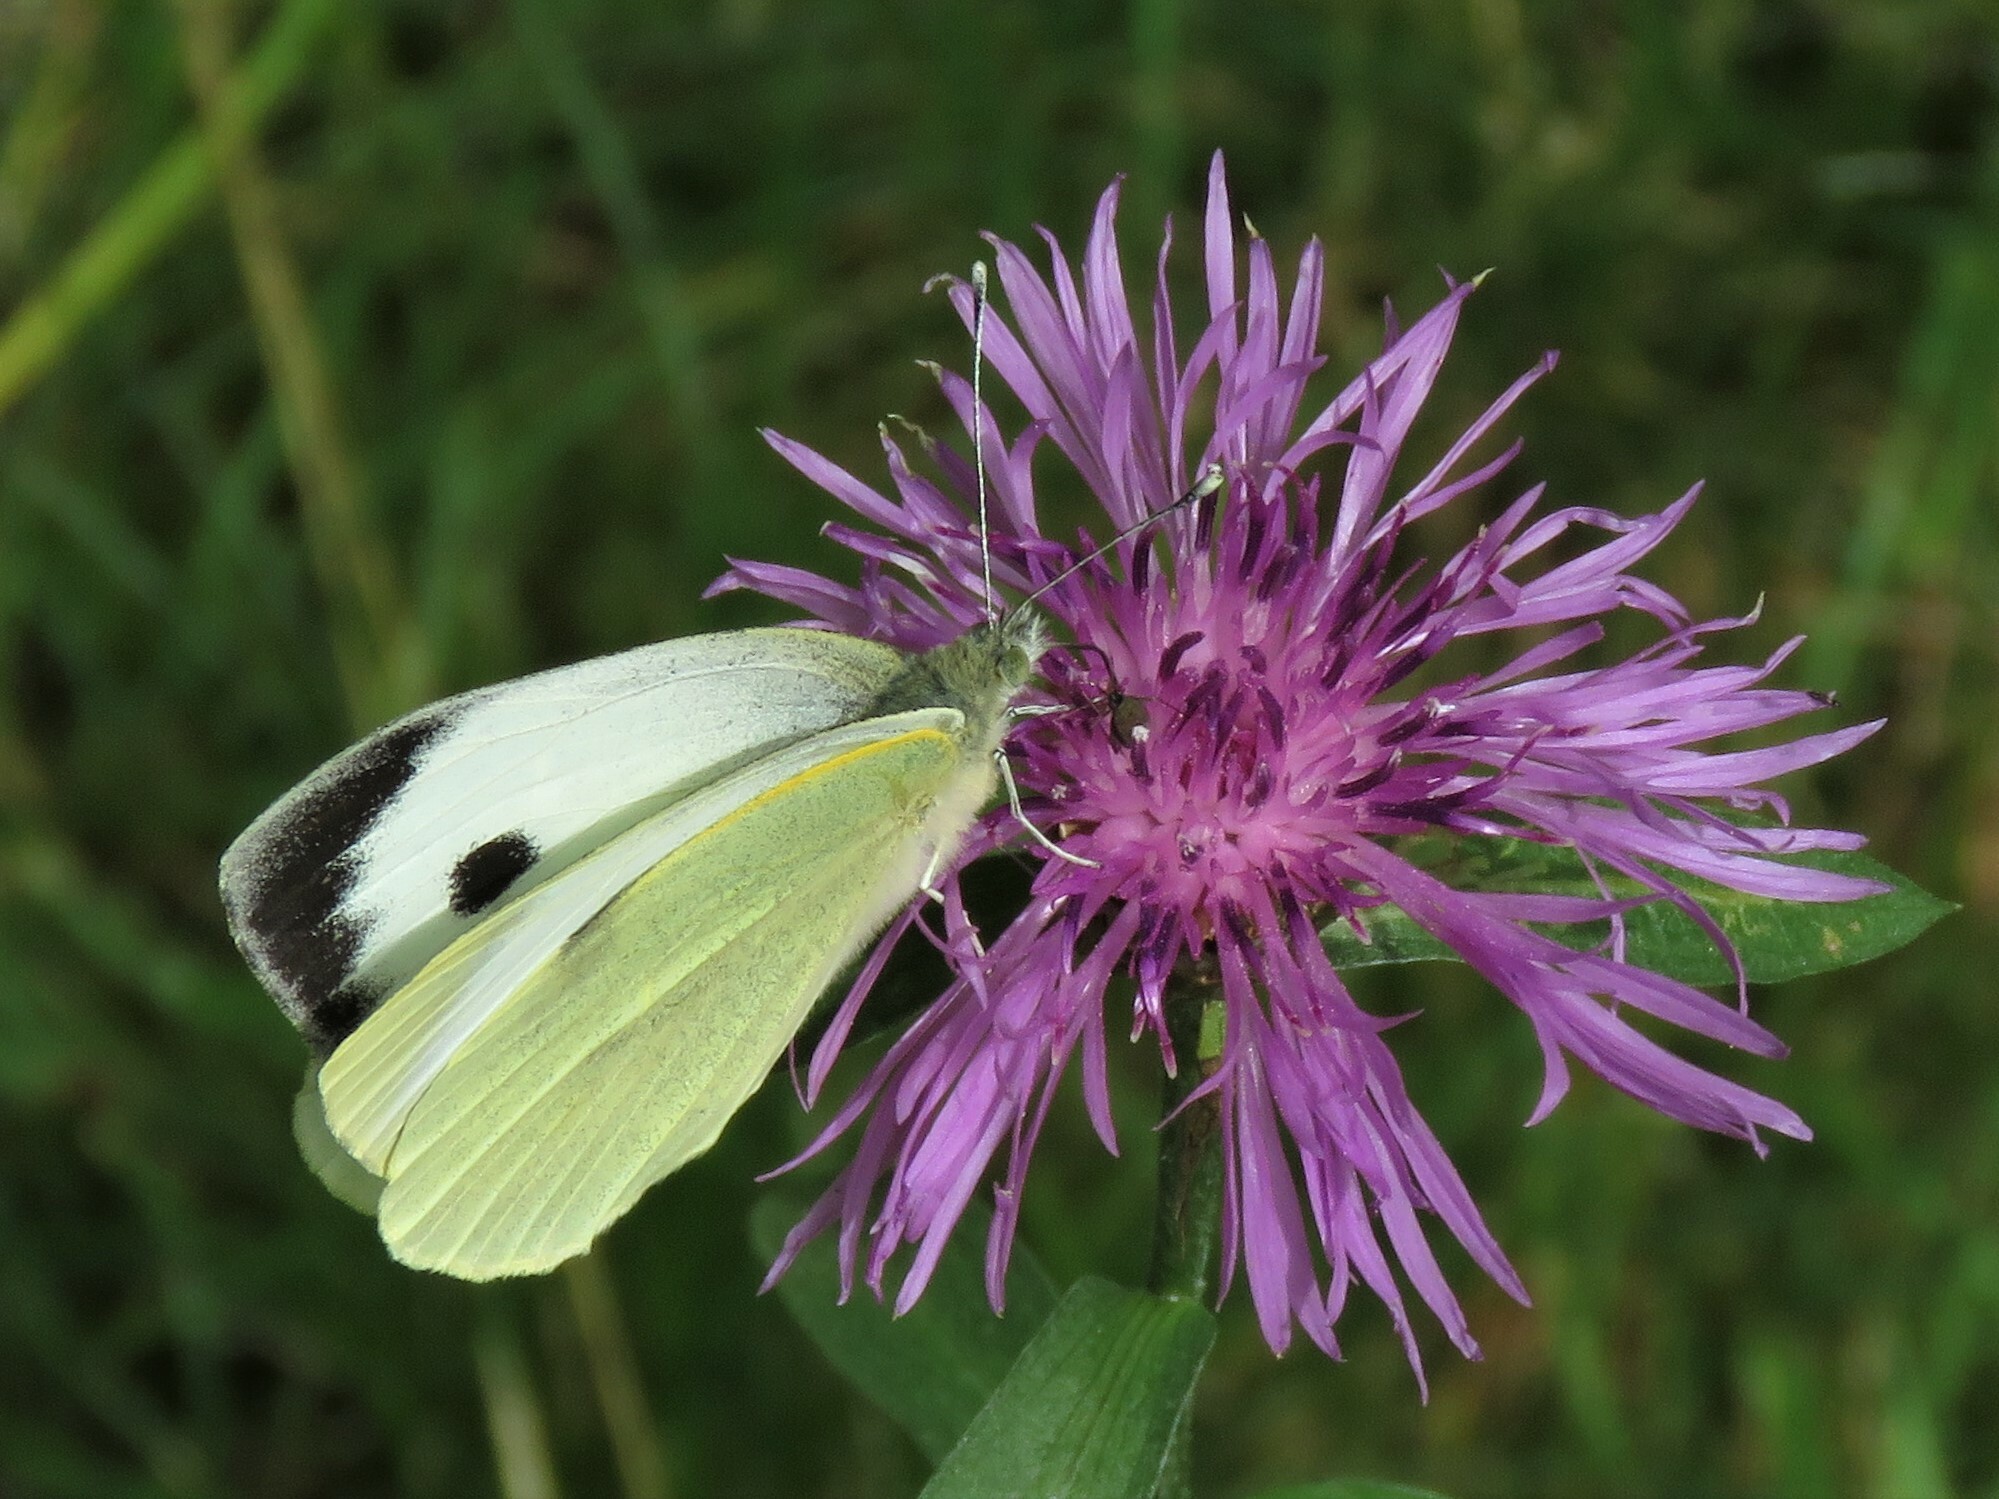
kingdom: Animalia
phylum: Arthropoda
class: Insecta
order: Lepidoptera
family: Pieridae
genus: Pieris
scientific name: Pieris brassicae
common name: Large white
